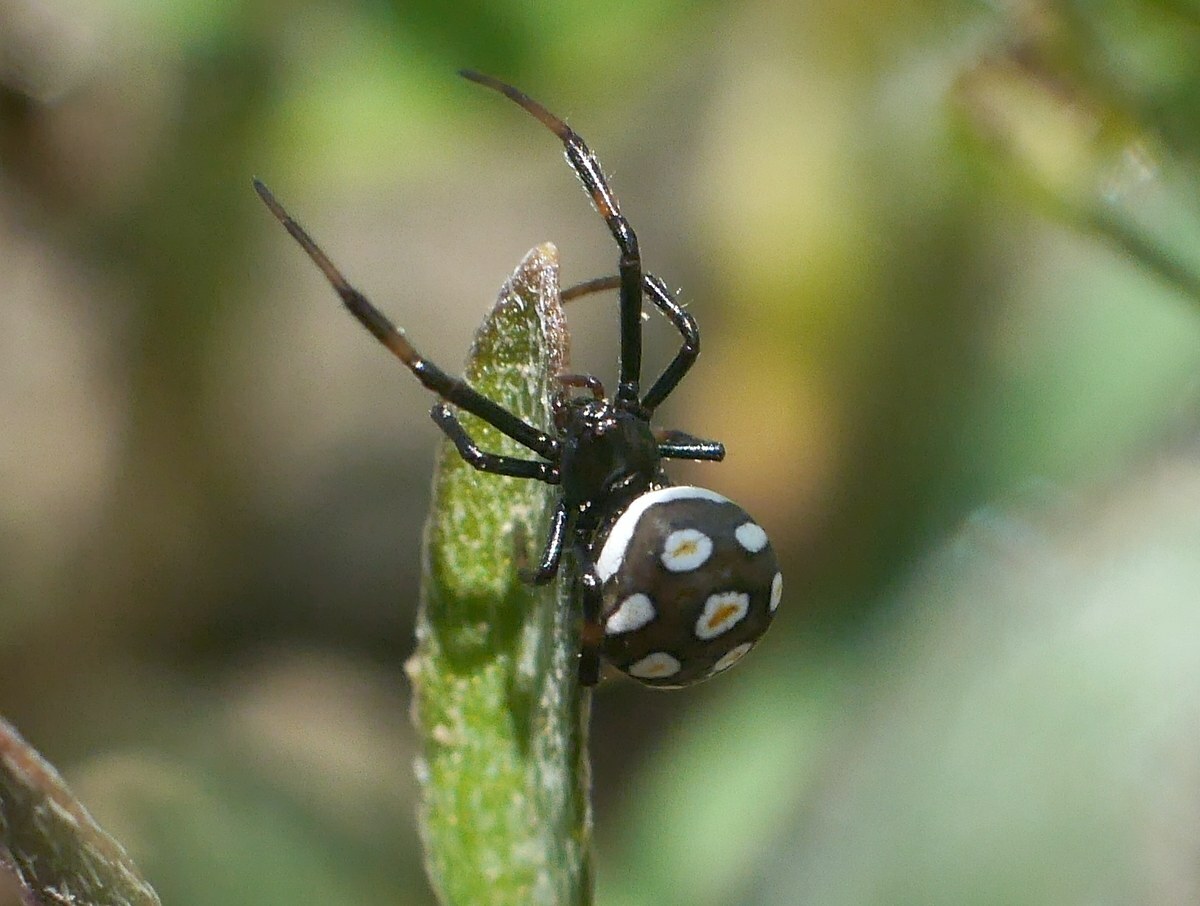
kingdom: Animalia
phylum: Arthropoda
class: Arachnida
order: Araneae
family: Theridiidae
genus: Latrodectus
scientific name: Latrodectus tredecimguttatus
